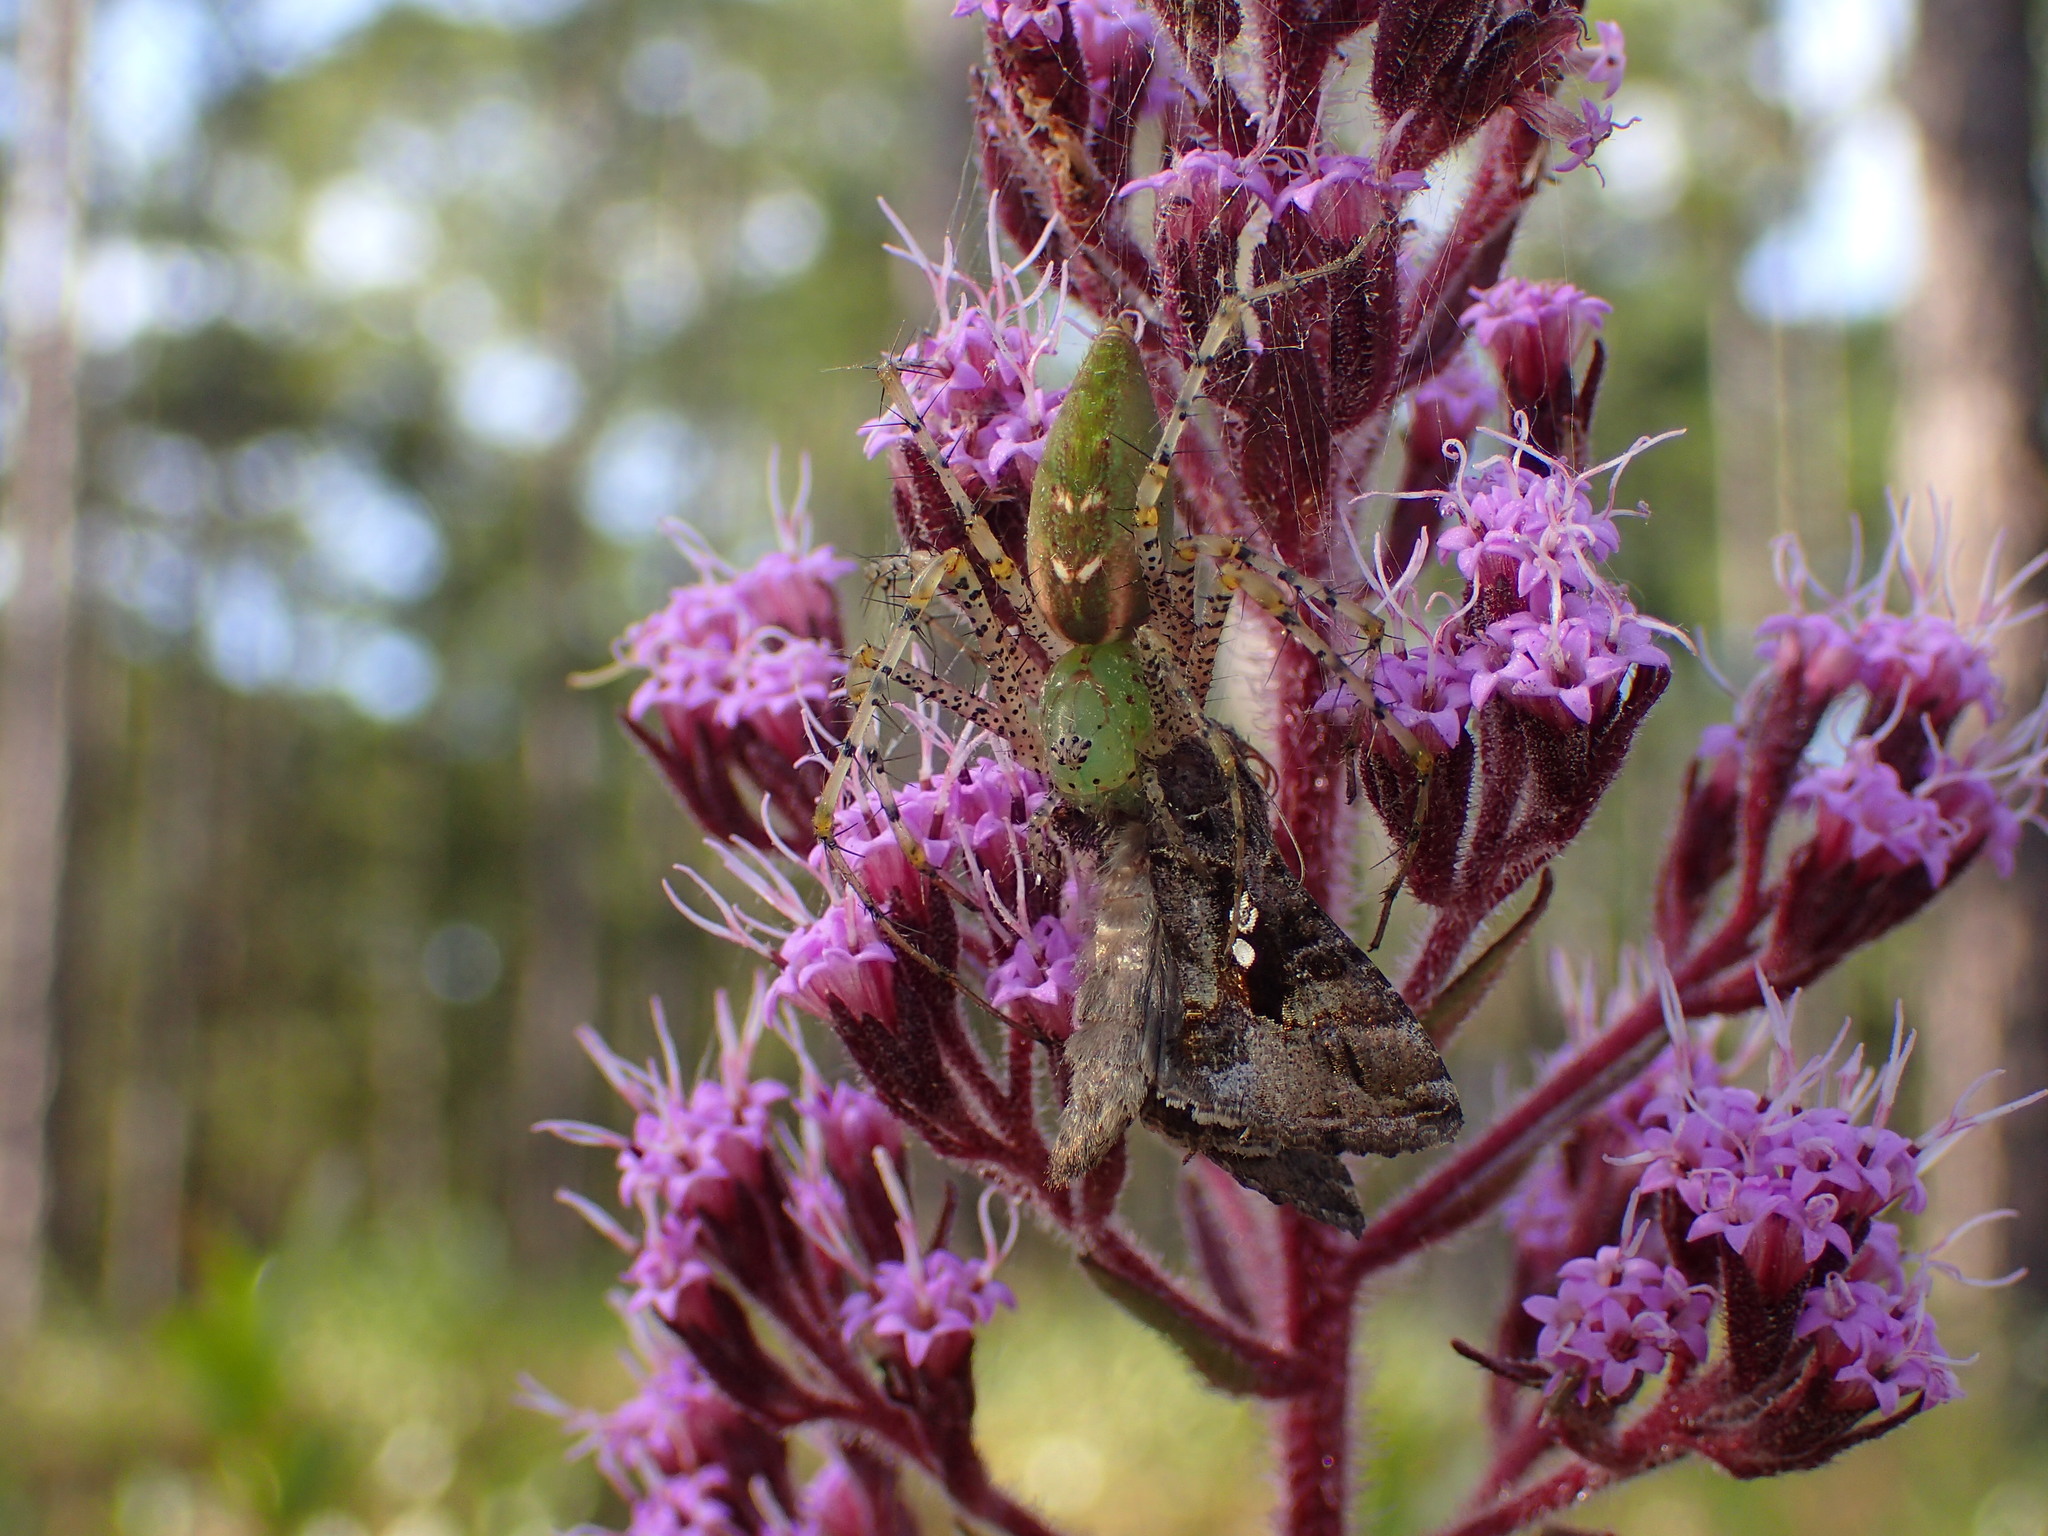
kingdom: Animalia
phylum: Arthropoda
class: Arachnida
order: Araneae
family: Oxyopidae
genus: Peucetia
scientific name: Peucetia viridans
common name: Lynx spiders
